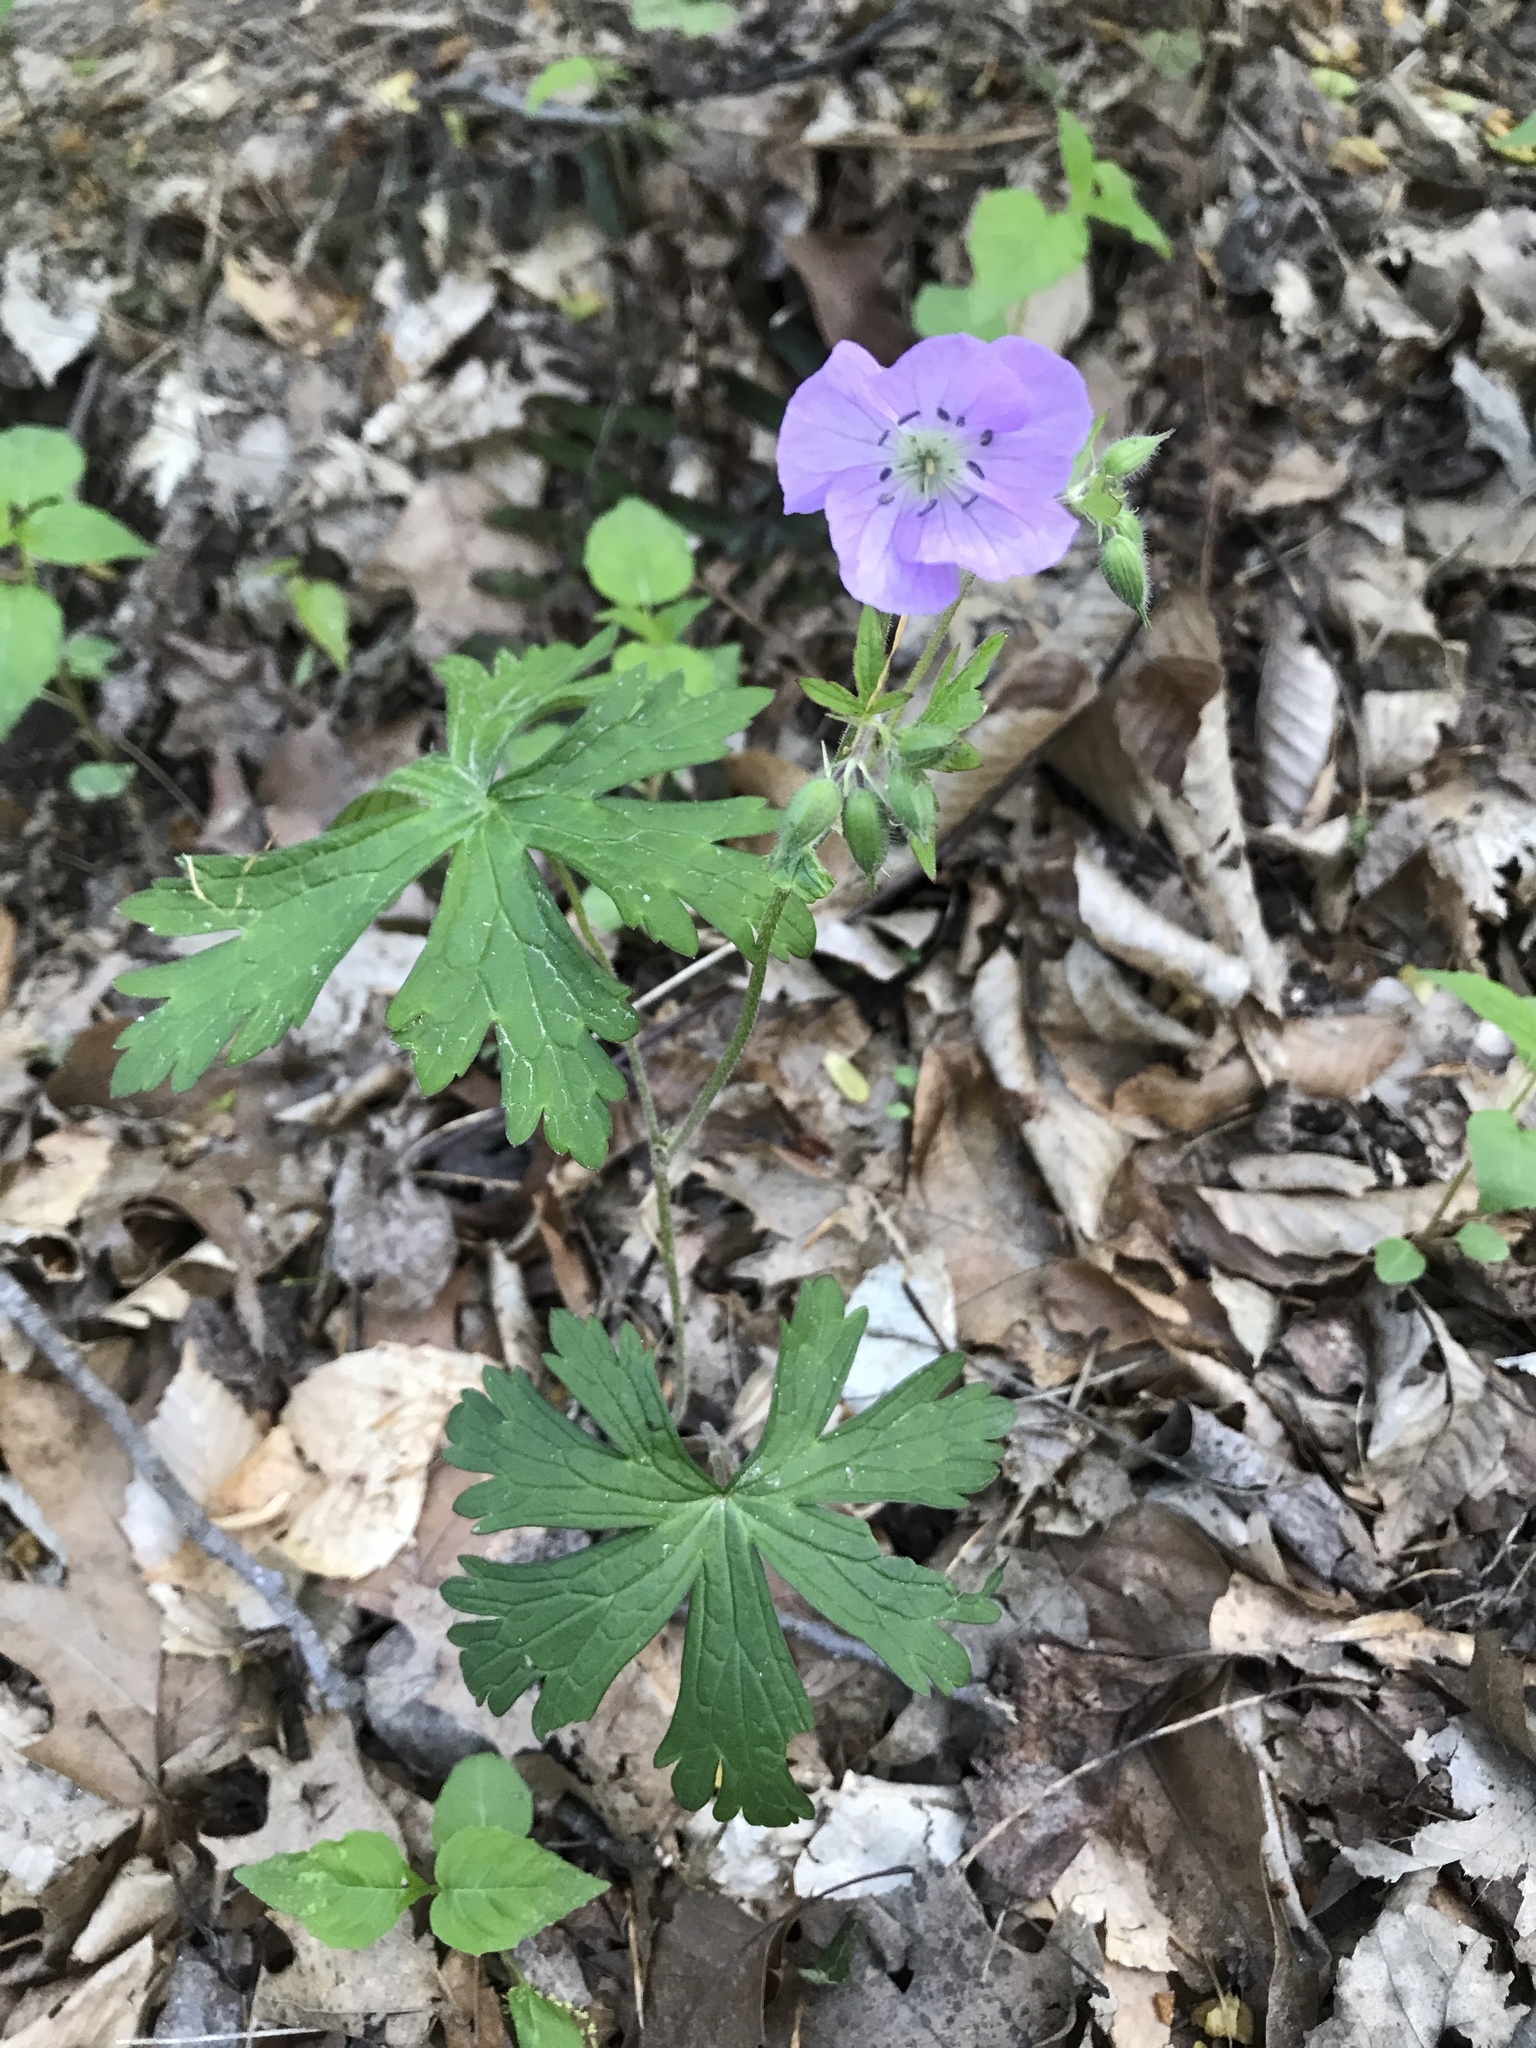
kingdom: Plantae
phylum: Tracheophyta
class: Magnoliopsida
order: Geraniales
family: Geraniaceae
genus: Geranium
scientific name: Geranium maculatum
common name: Spotted geranium
